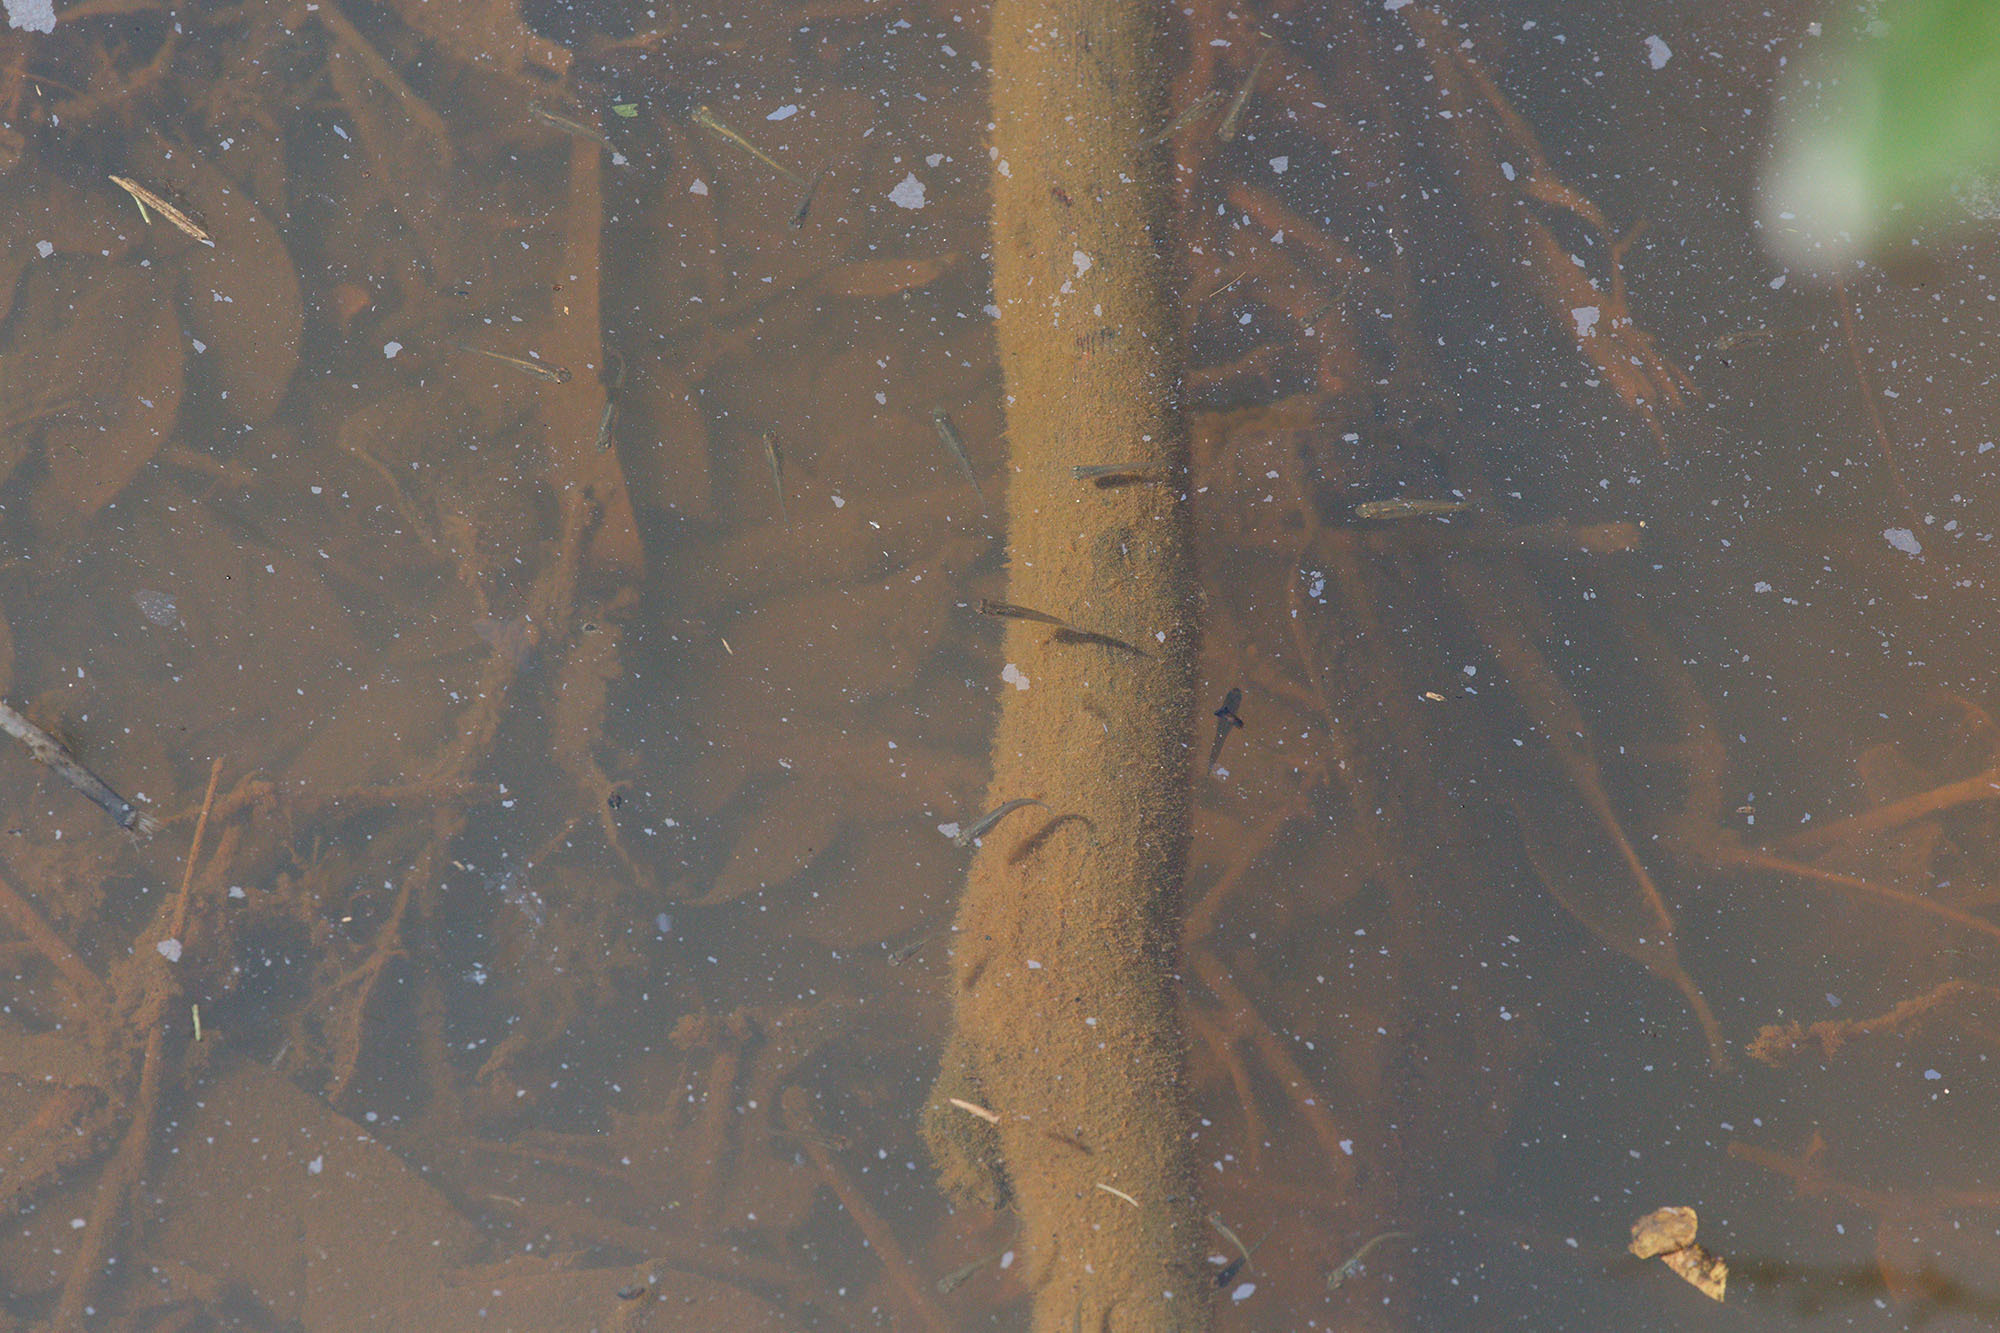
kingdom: Animalia
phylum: Chordata
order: Cyprinodontiformes
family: Poeciliidae
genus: Gambusia
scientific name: Gambusia affinis
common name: Mosquitofish
